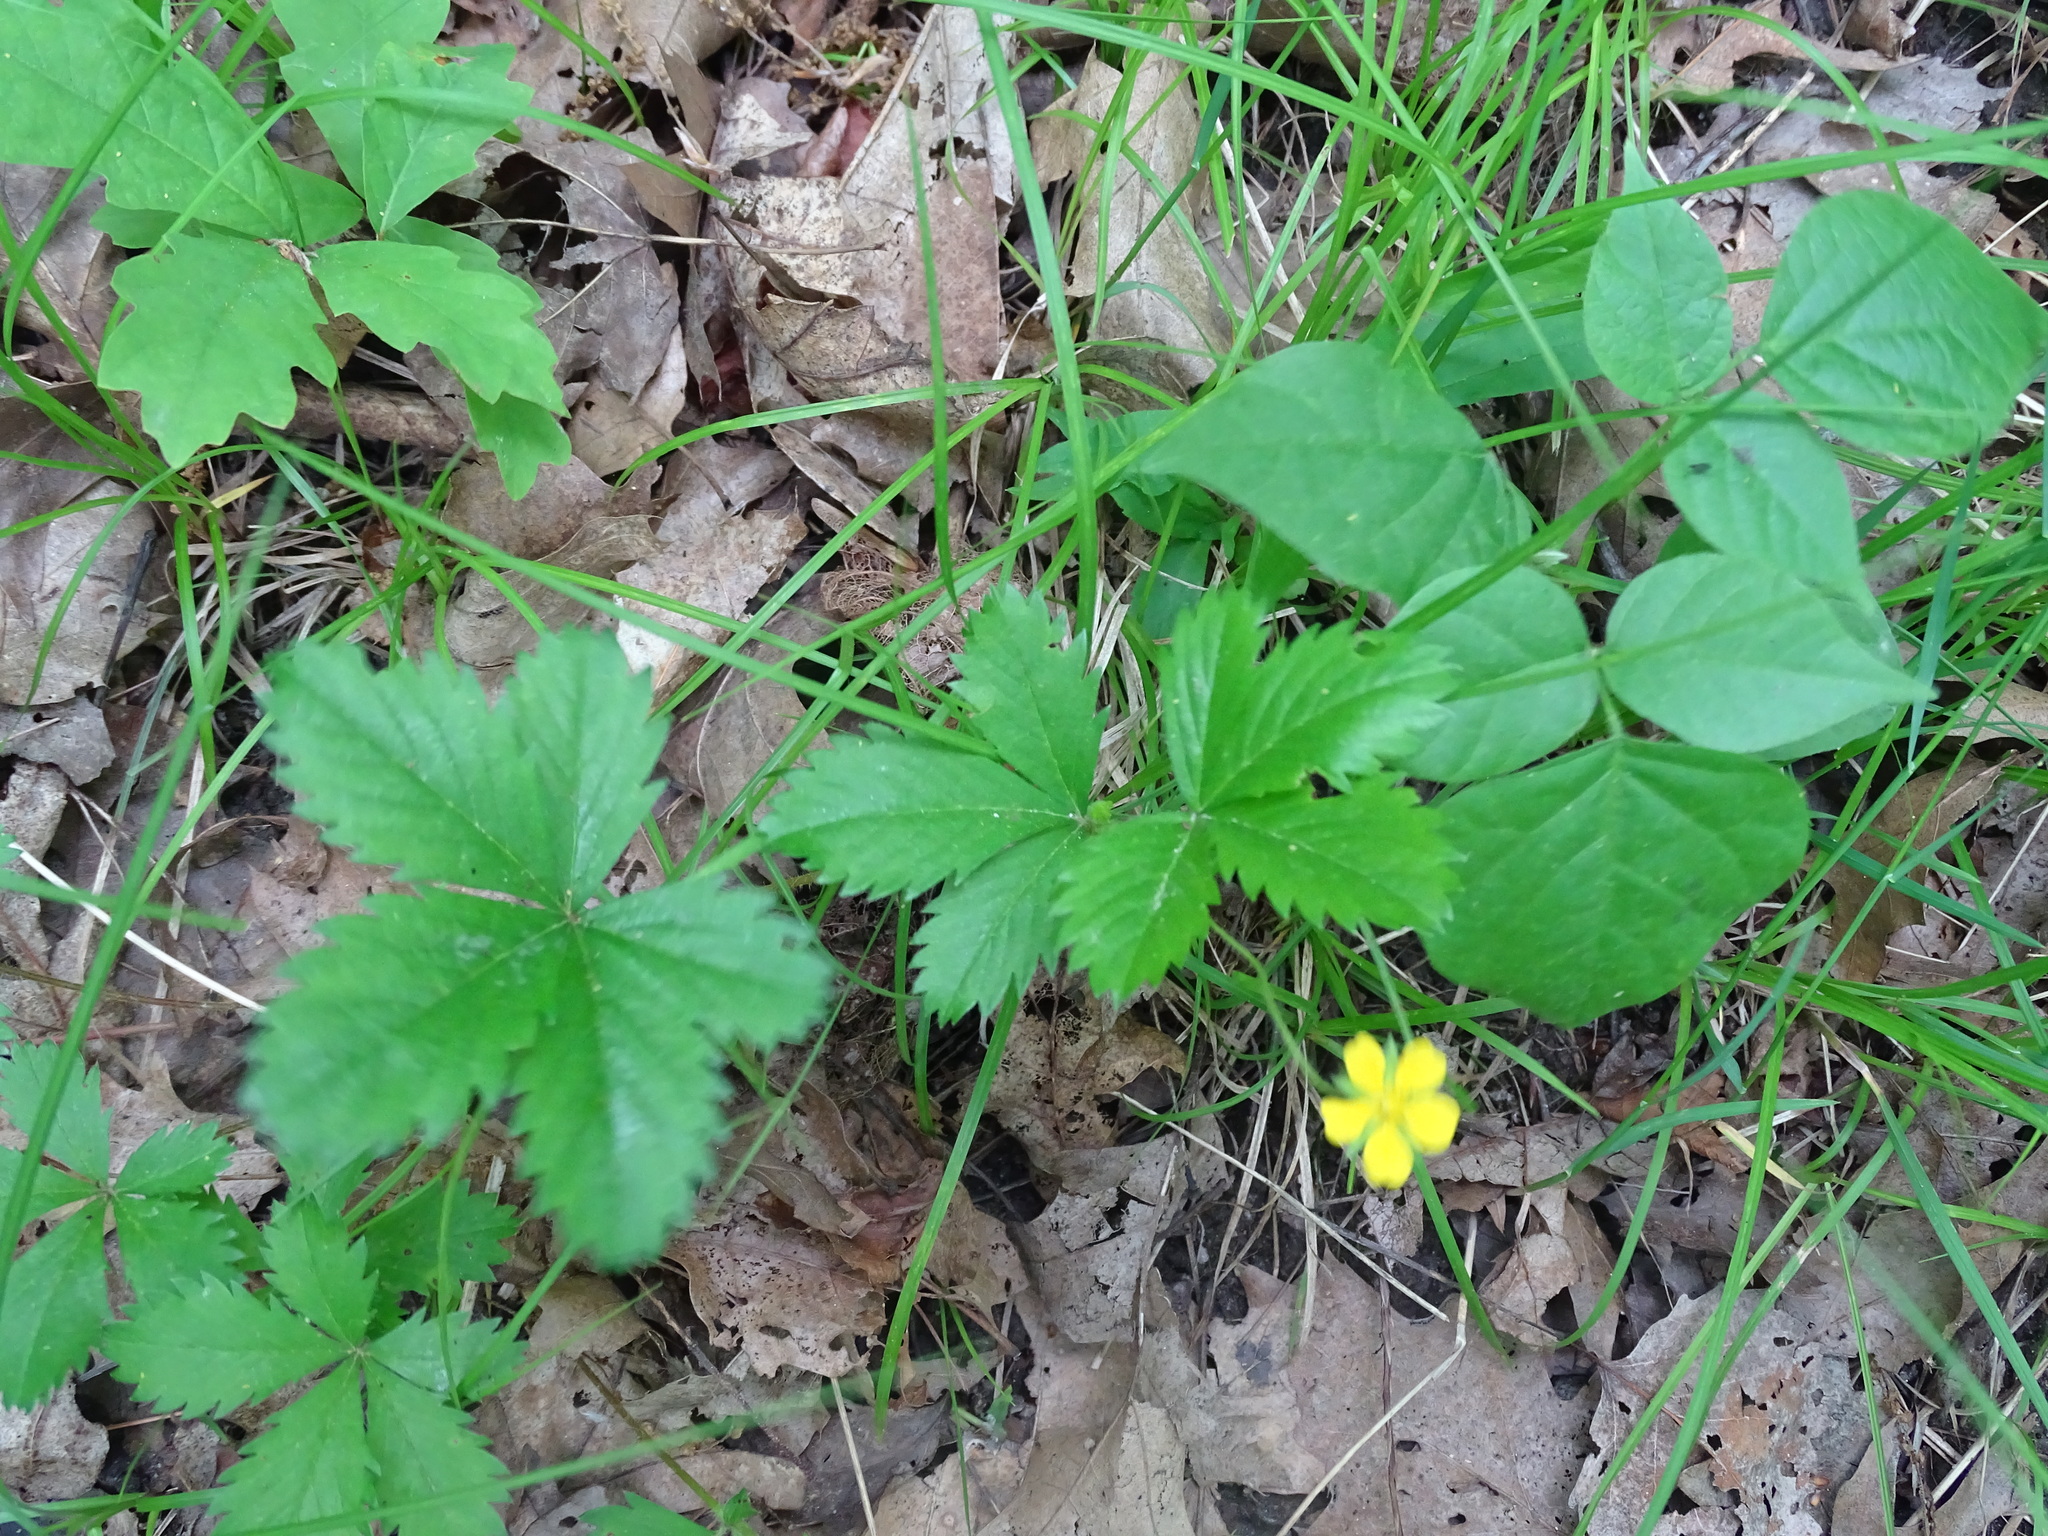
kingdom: Plantae
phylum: Tracheophyta
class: Magnoliopsida
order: Rosales
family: Rosaceae
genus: Potentilla
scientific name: Potentilla simplex
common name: Old field cinquefoil
